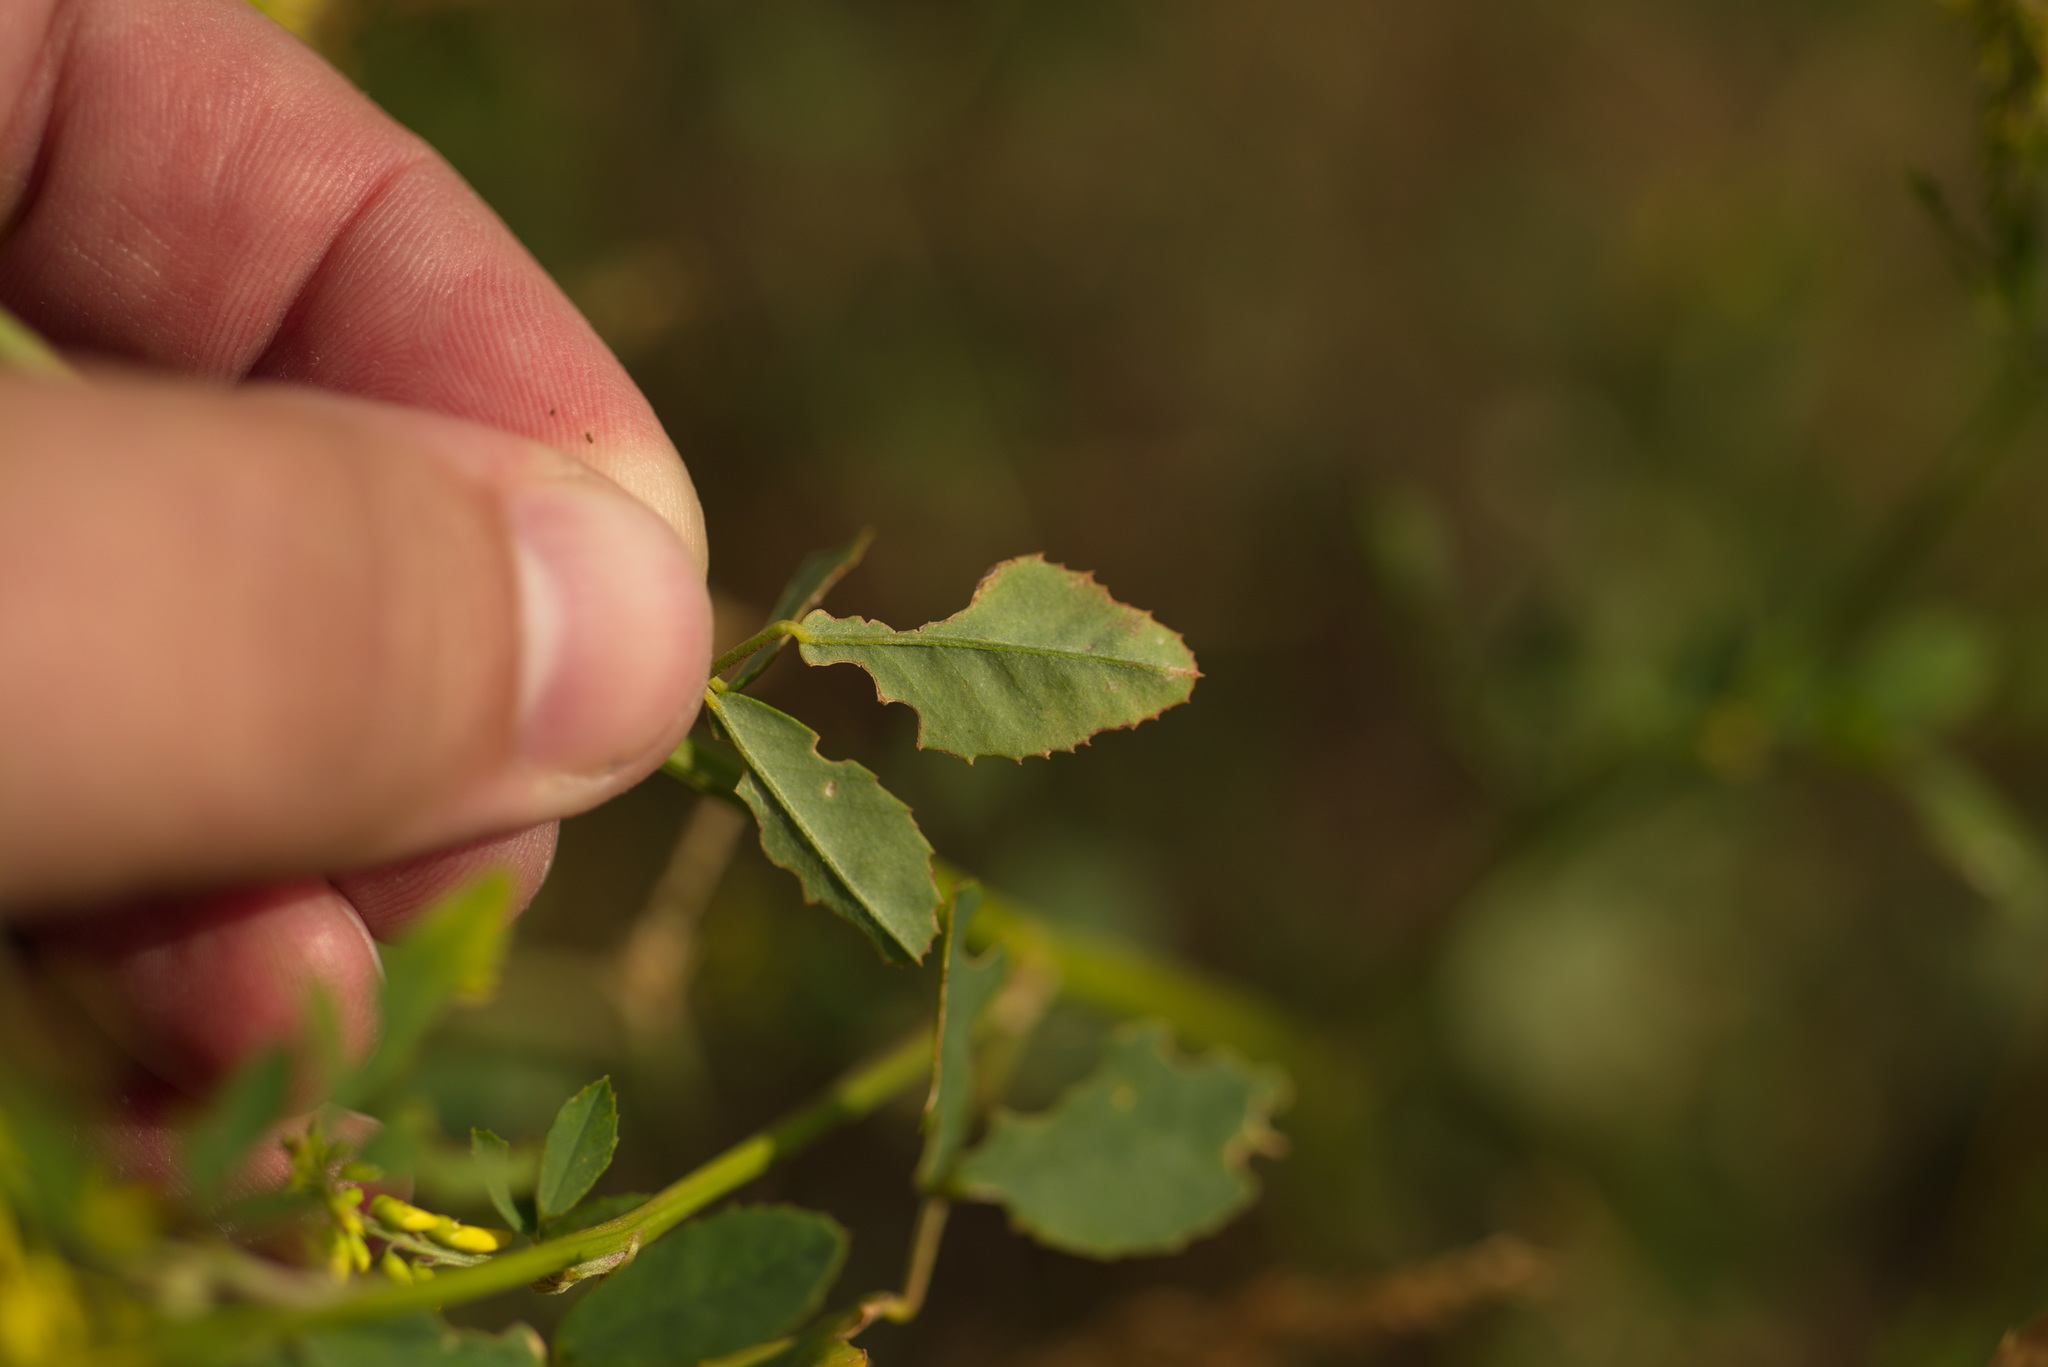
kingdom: Plantae
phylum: Tracheophyta
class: Magnoliopsida
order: Fabales
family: Fabaceae
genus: Melilotus
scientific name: Melilotus officinalis
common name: Sweetclover
